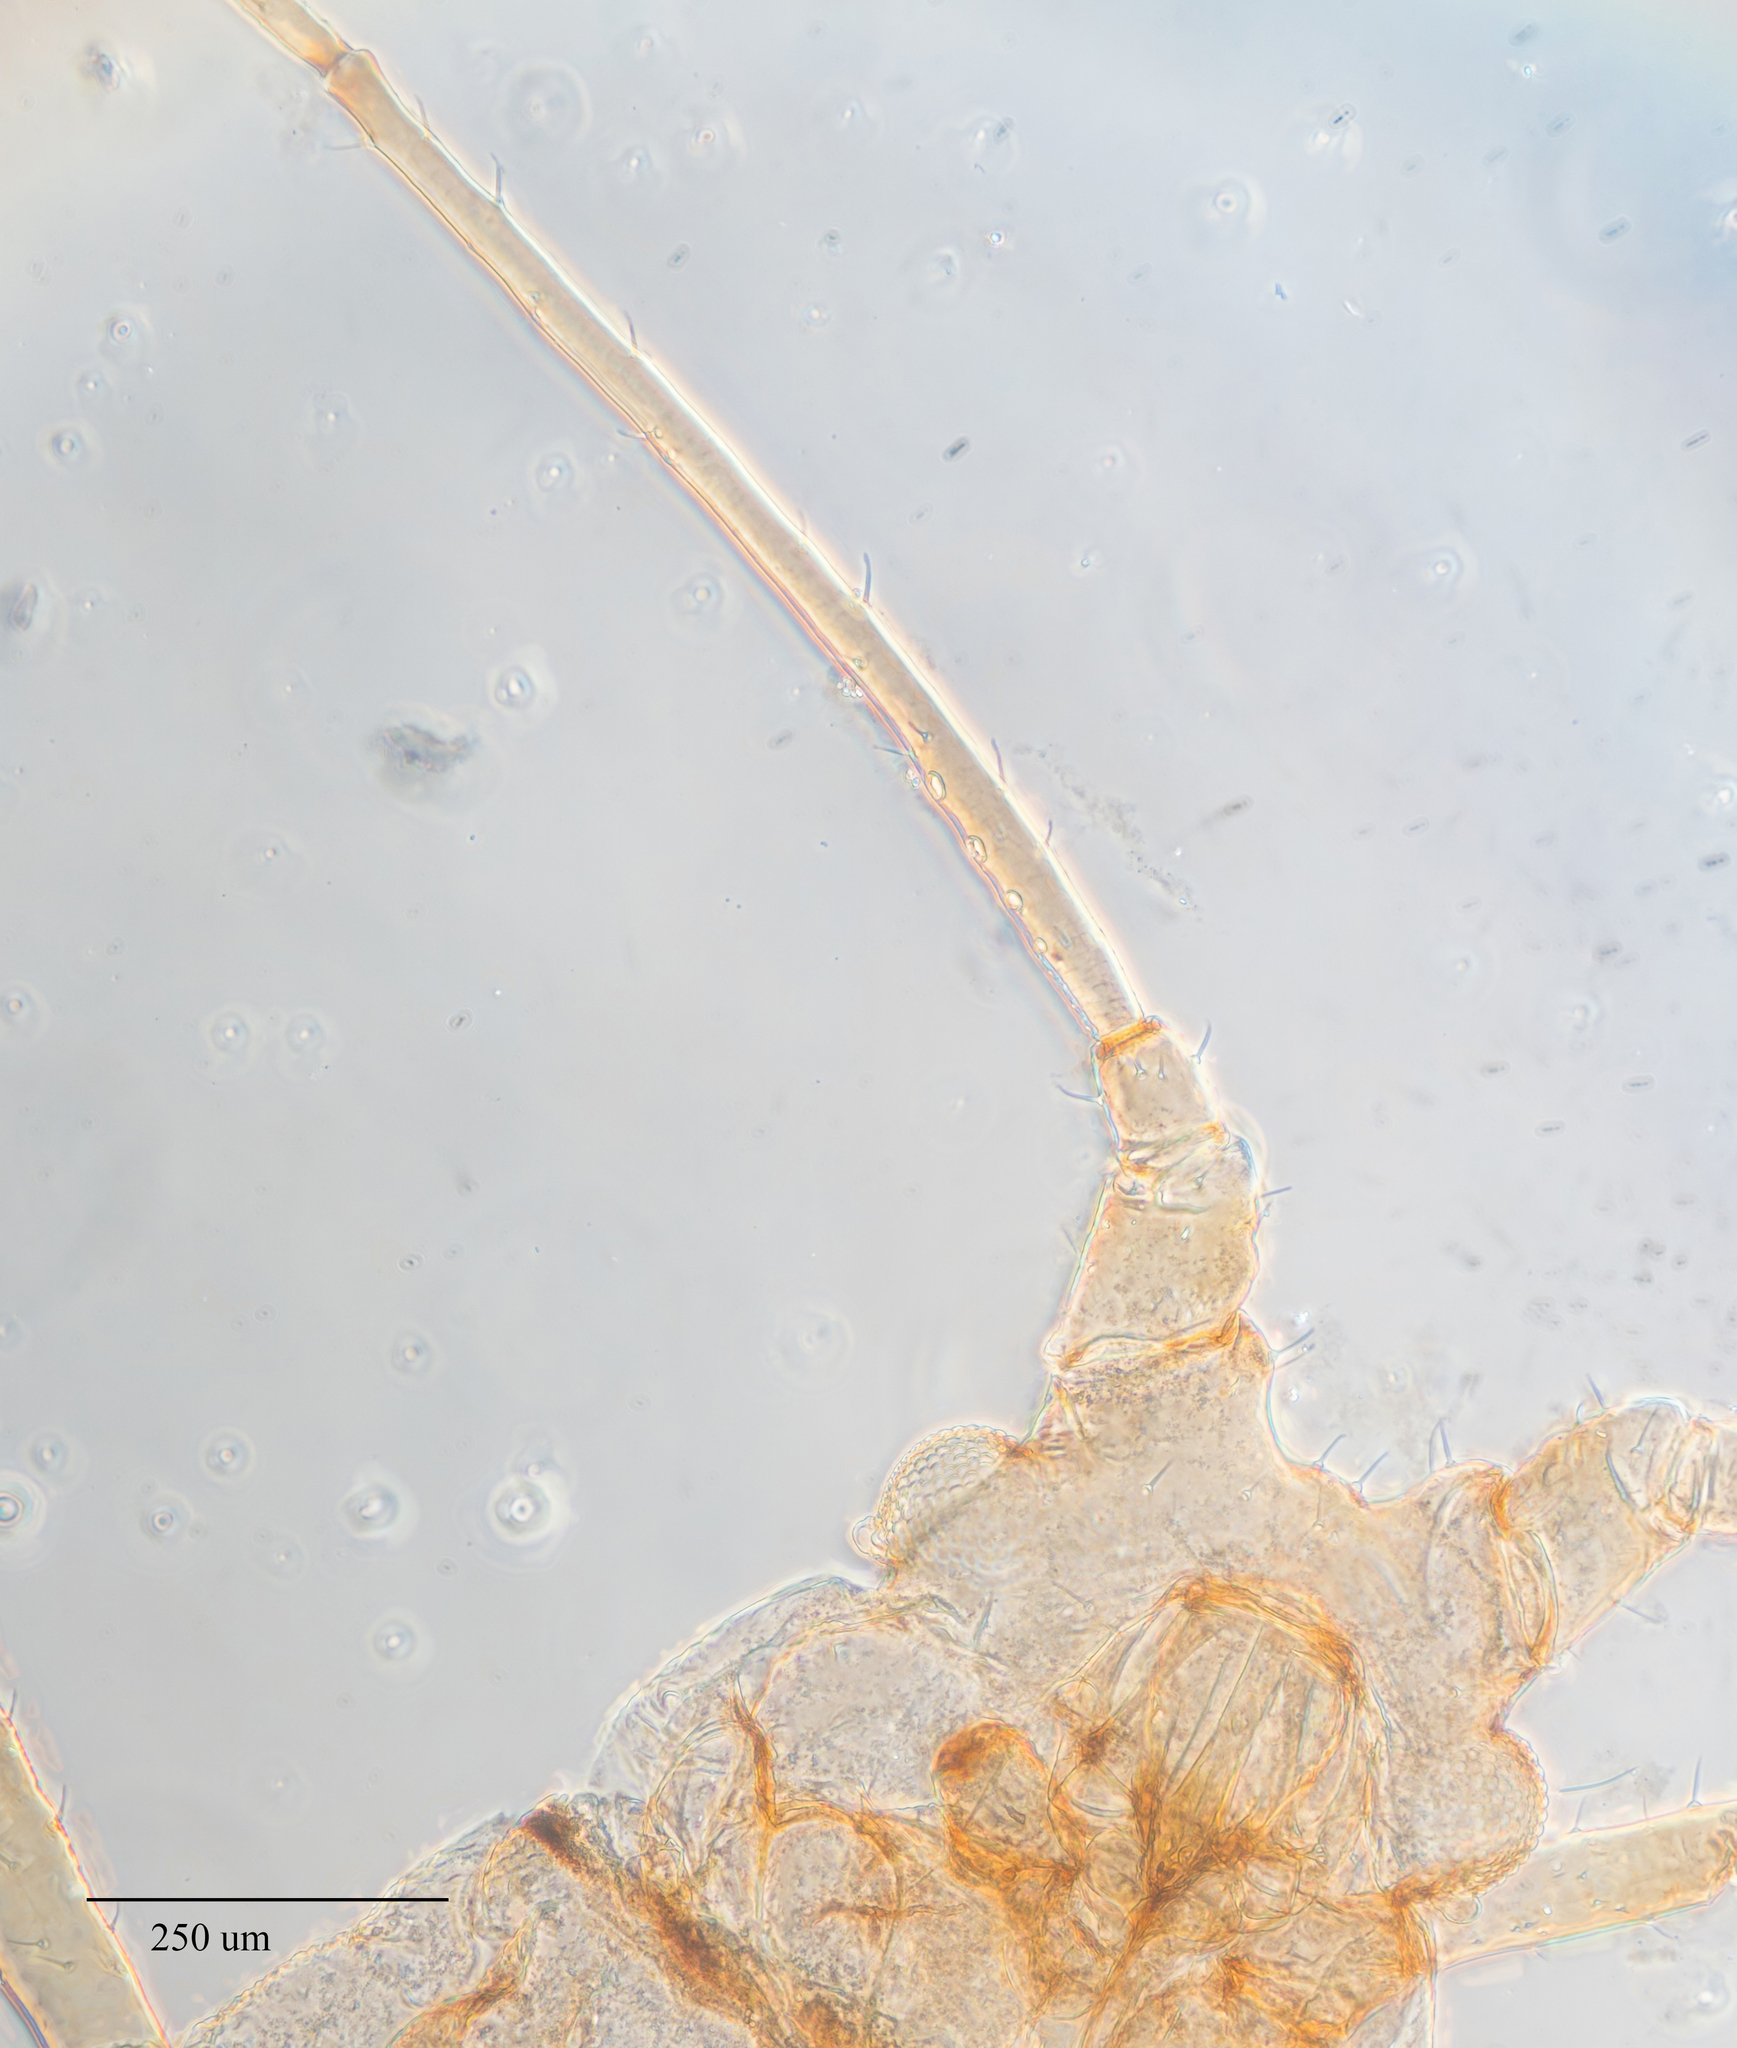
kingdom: Animalia
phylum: Arthropoda
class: Insecta
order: Hemiptera
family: Aphididae
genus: Macrosiphum
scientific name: Macrosiphum euphorbiae
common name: Potato aphid
